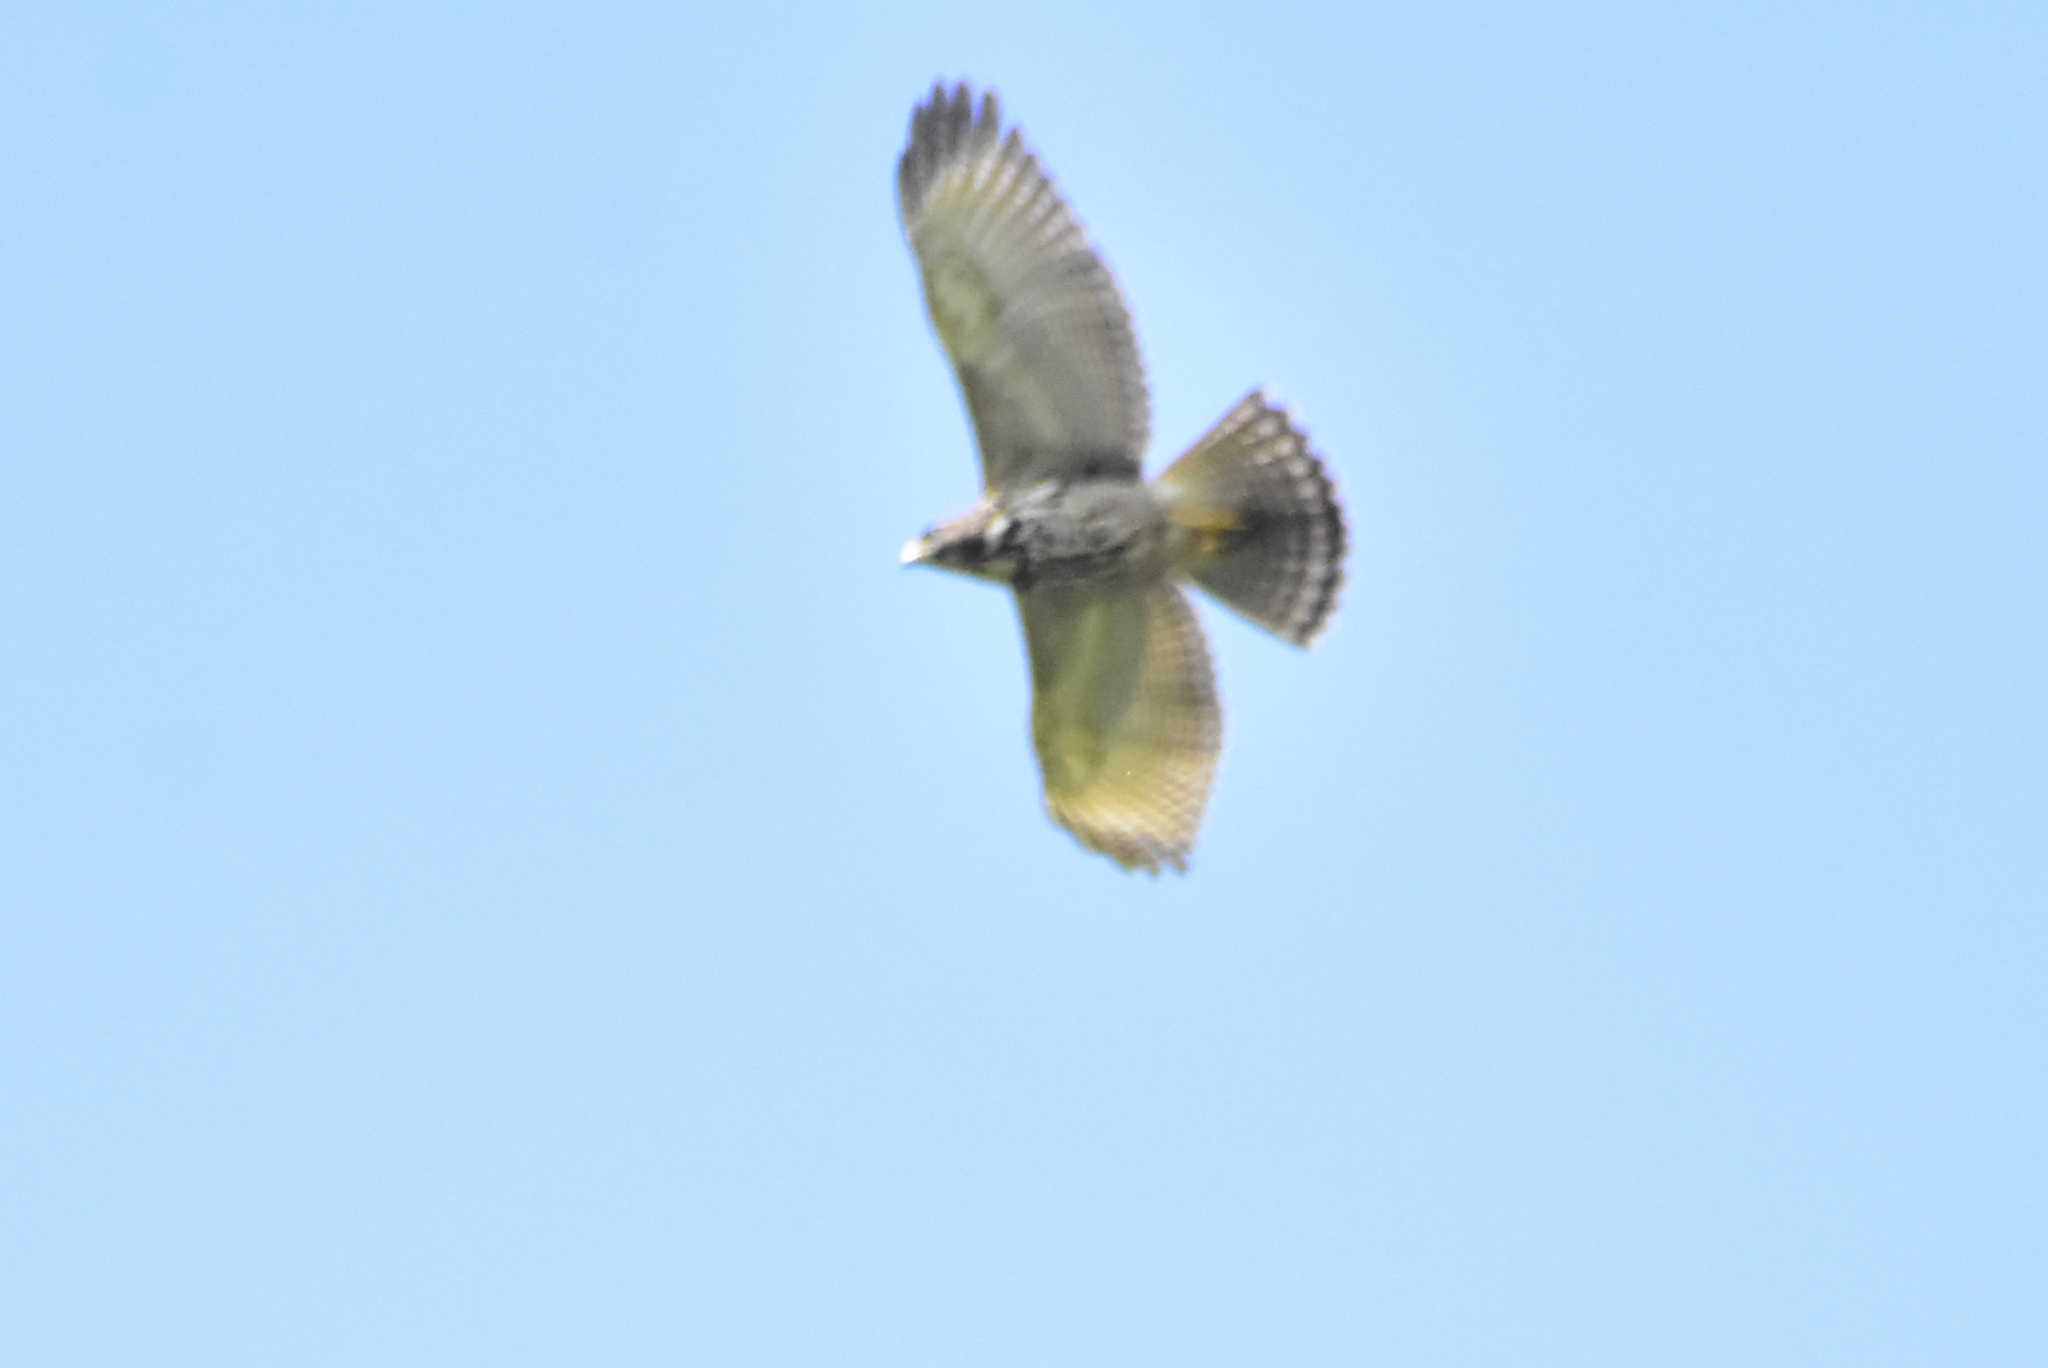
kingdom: Animalia
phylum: Chordata
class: Aves
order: Accipitriformes
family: Accipitridae
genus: Buteo
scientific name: Buteo platypterus
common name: Broad-winged hawk
